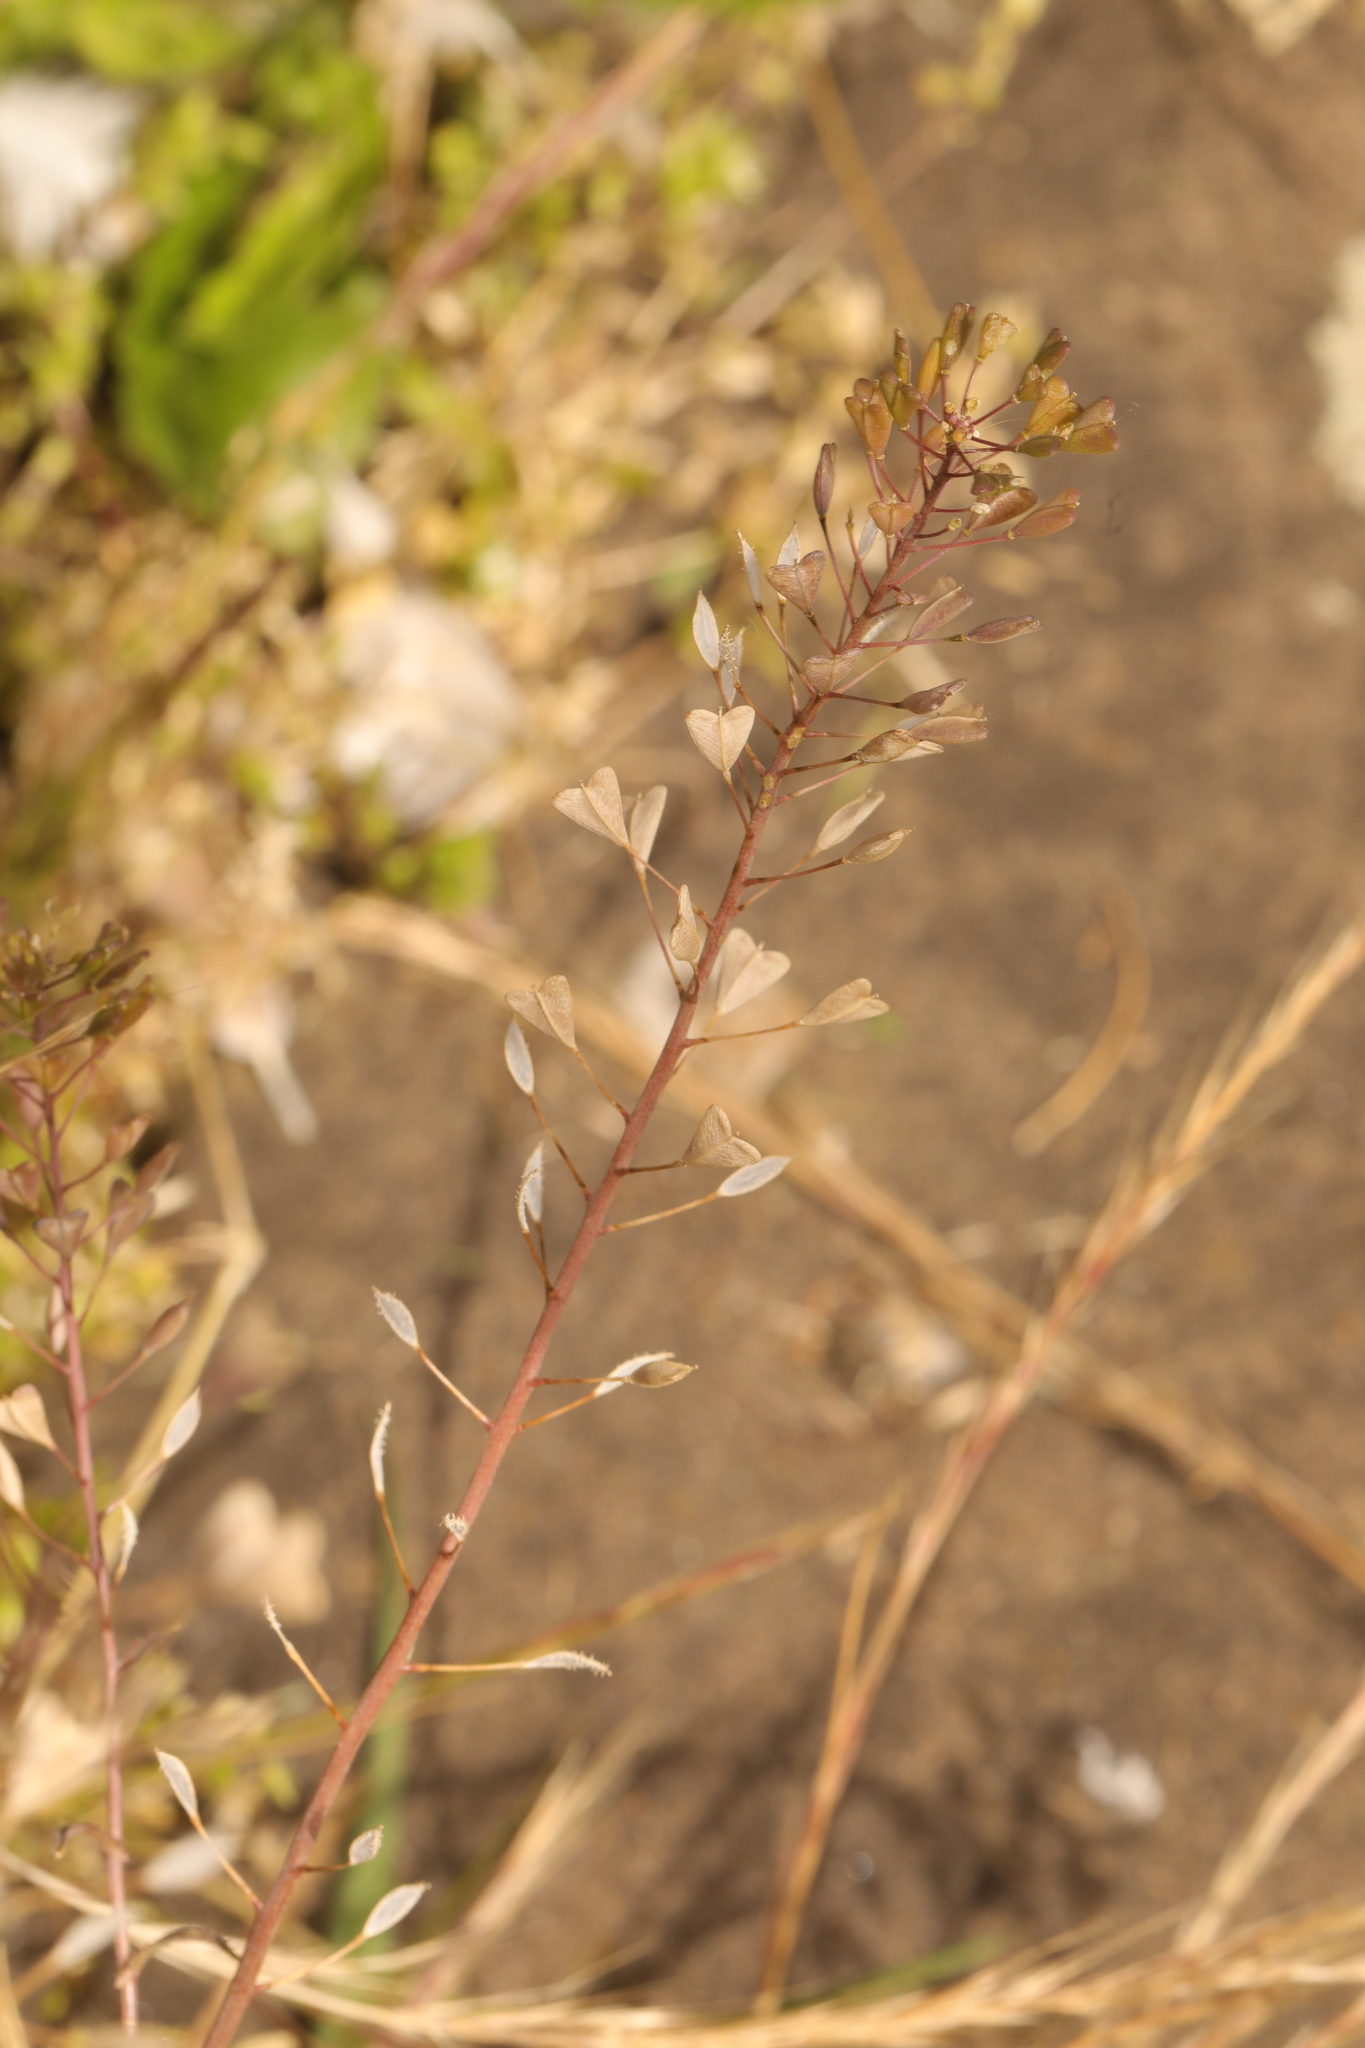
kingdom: Plantae
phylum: Tracheophyta
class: Magnoliopsida
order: Brassicales
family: Brassicaceae
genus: Capsella
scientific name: Capsella bursa-pastoris
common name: Shepherd's purse
